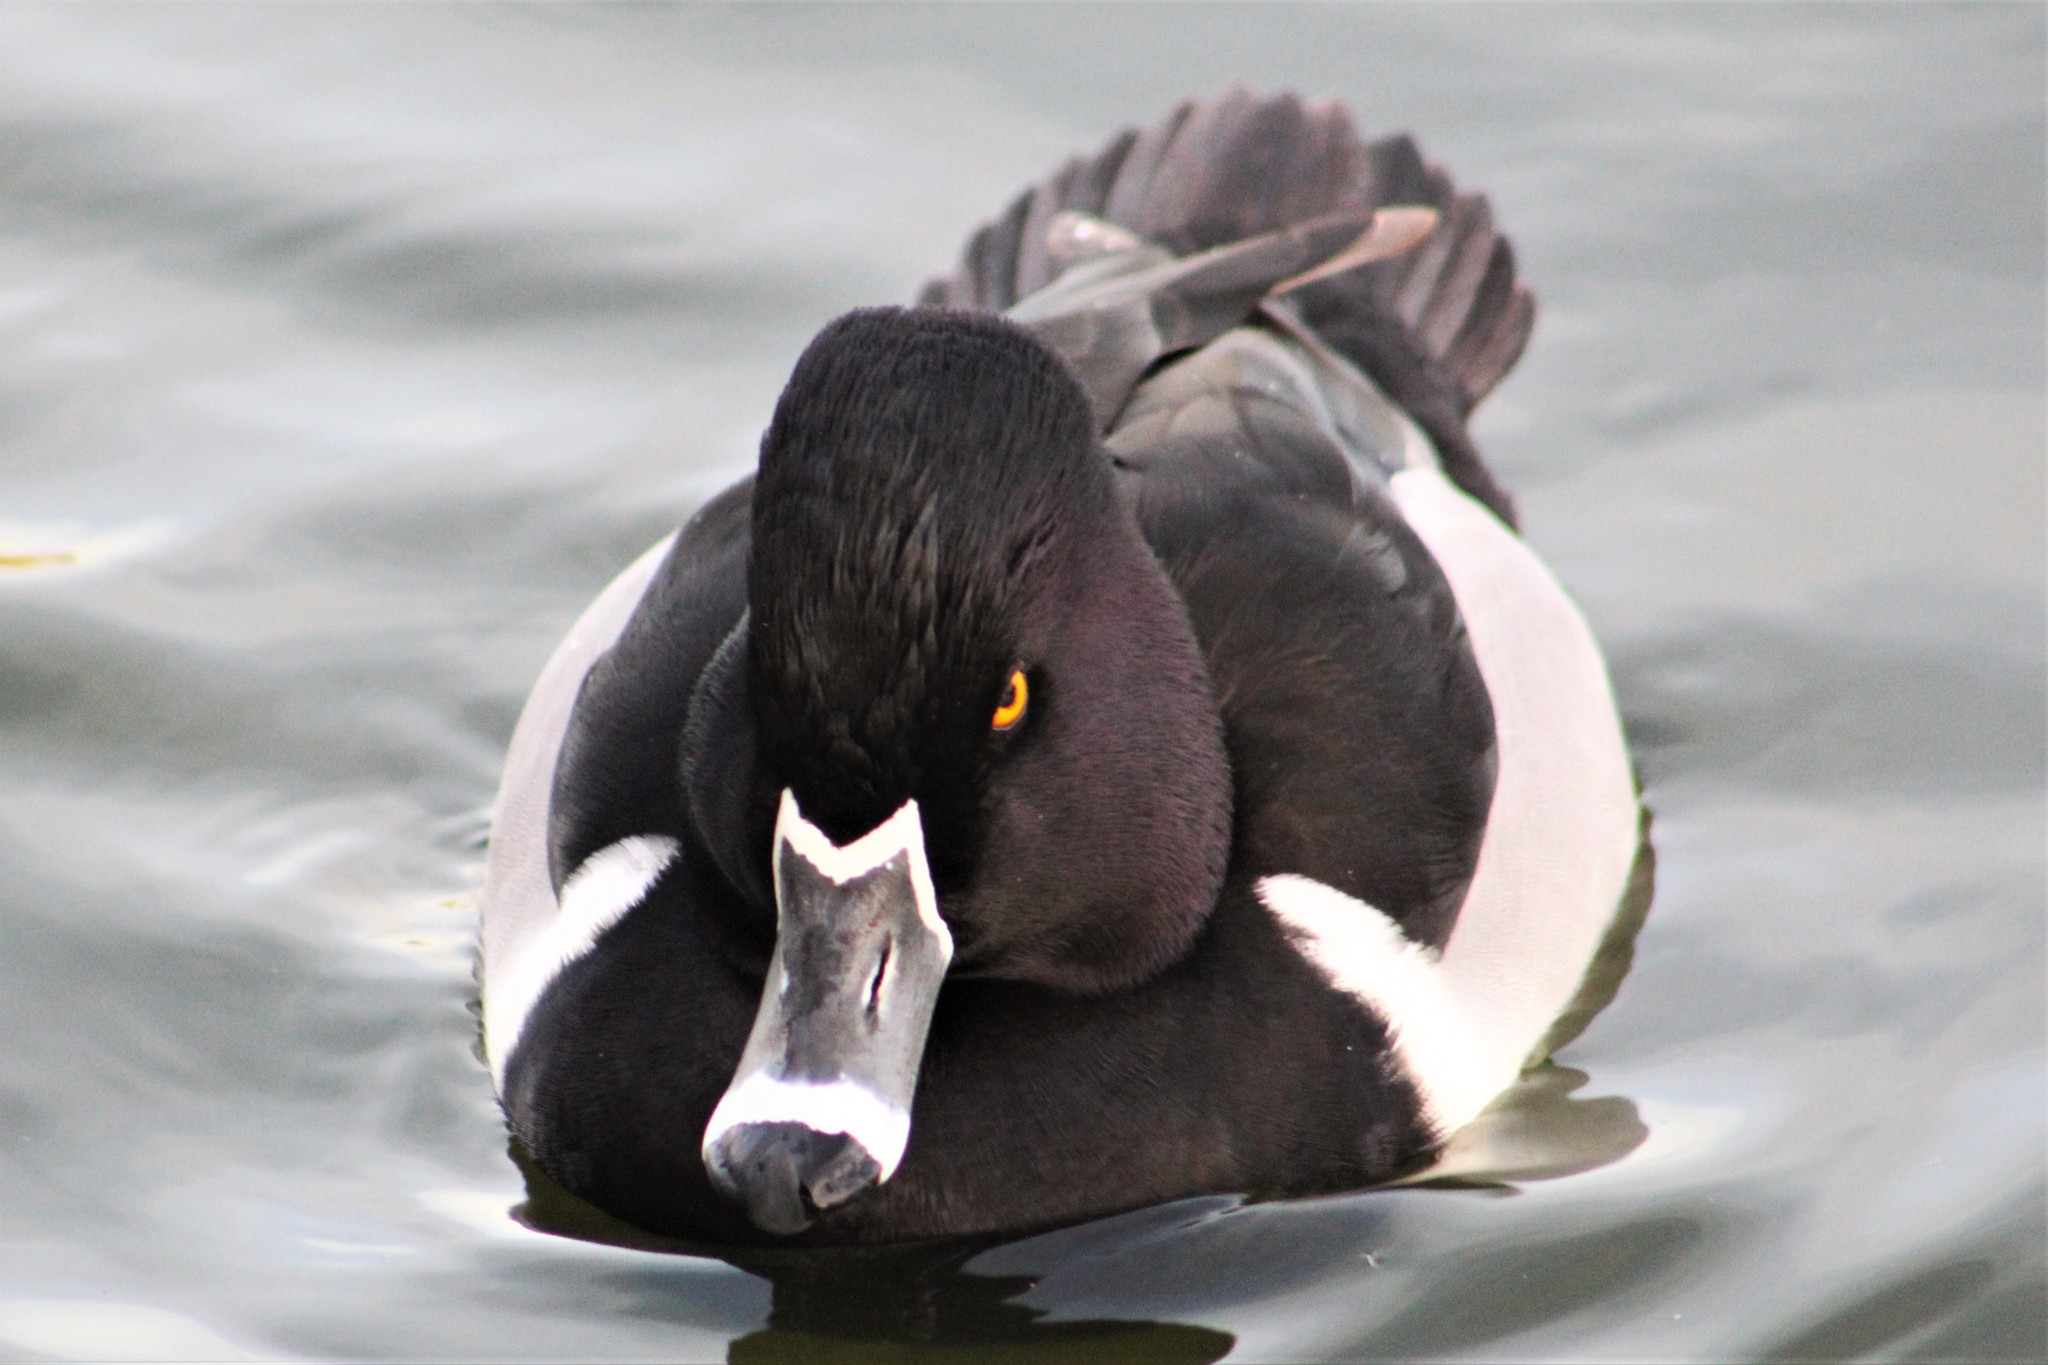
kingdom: Animalia
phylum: Chordata
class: Aves
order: Anseriformes
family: Anatidae
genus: Aythya
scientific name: Aythya collaris
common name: Ring-necked duck
